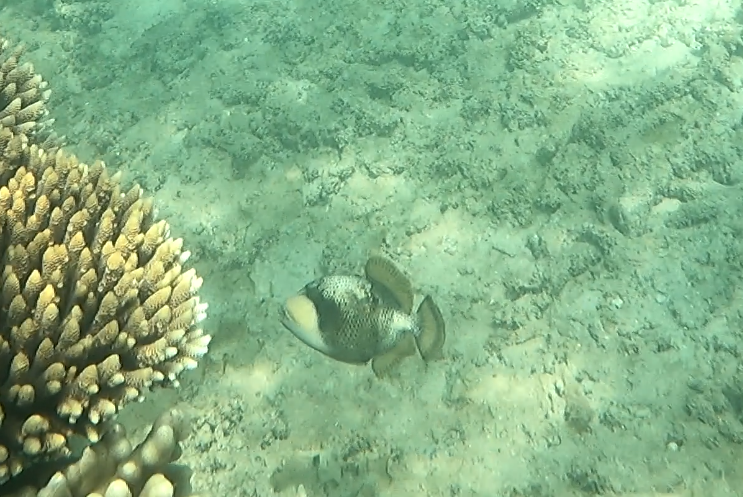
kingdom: Animalia
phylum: Chordata
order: Tetraodontiformes
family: Balistidae
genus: Balistoides
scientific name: Balistoides viridescens
